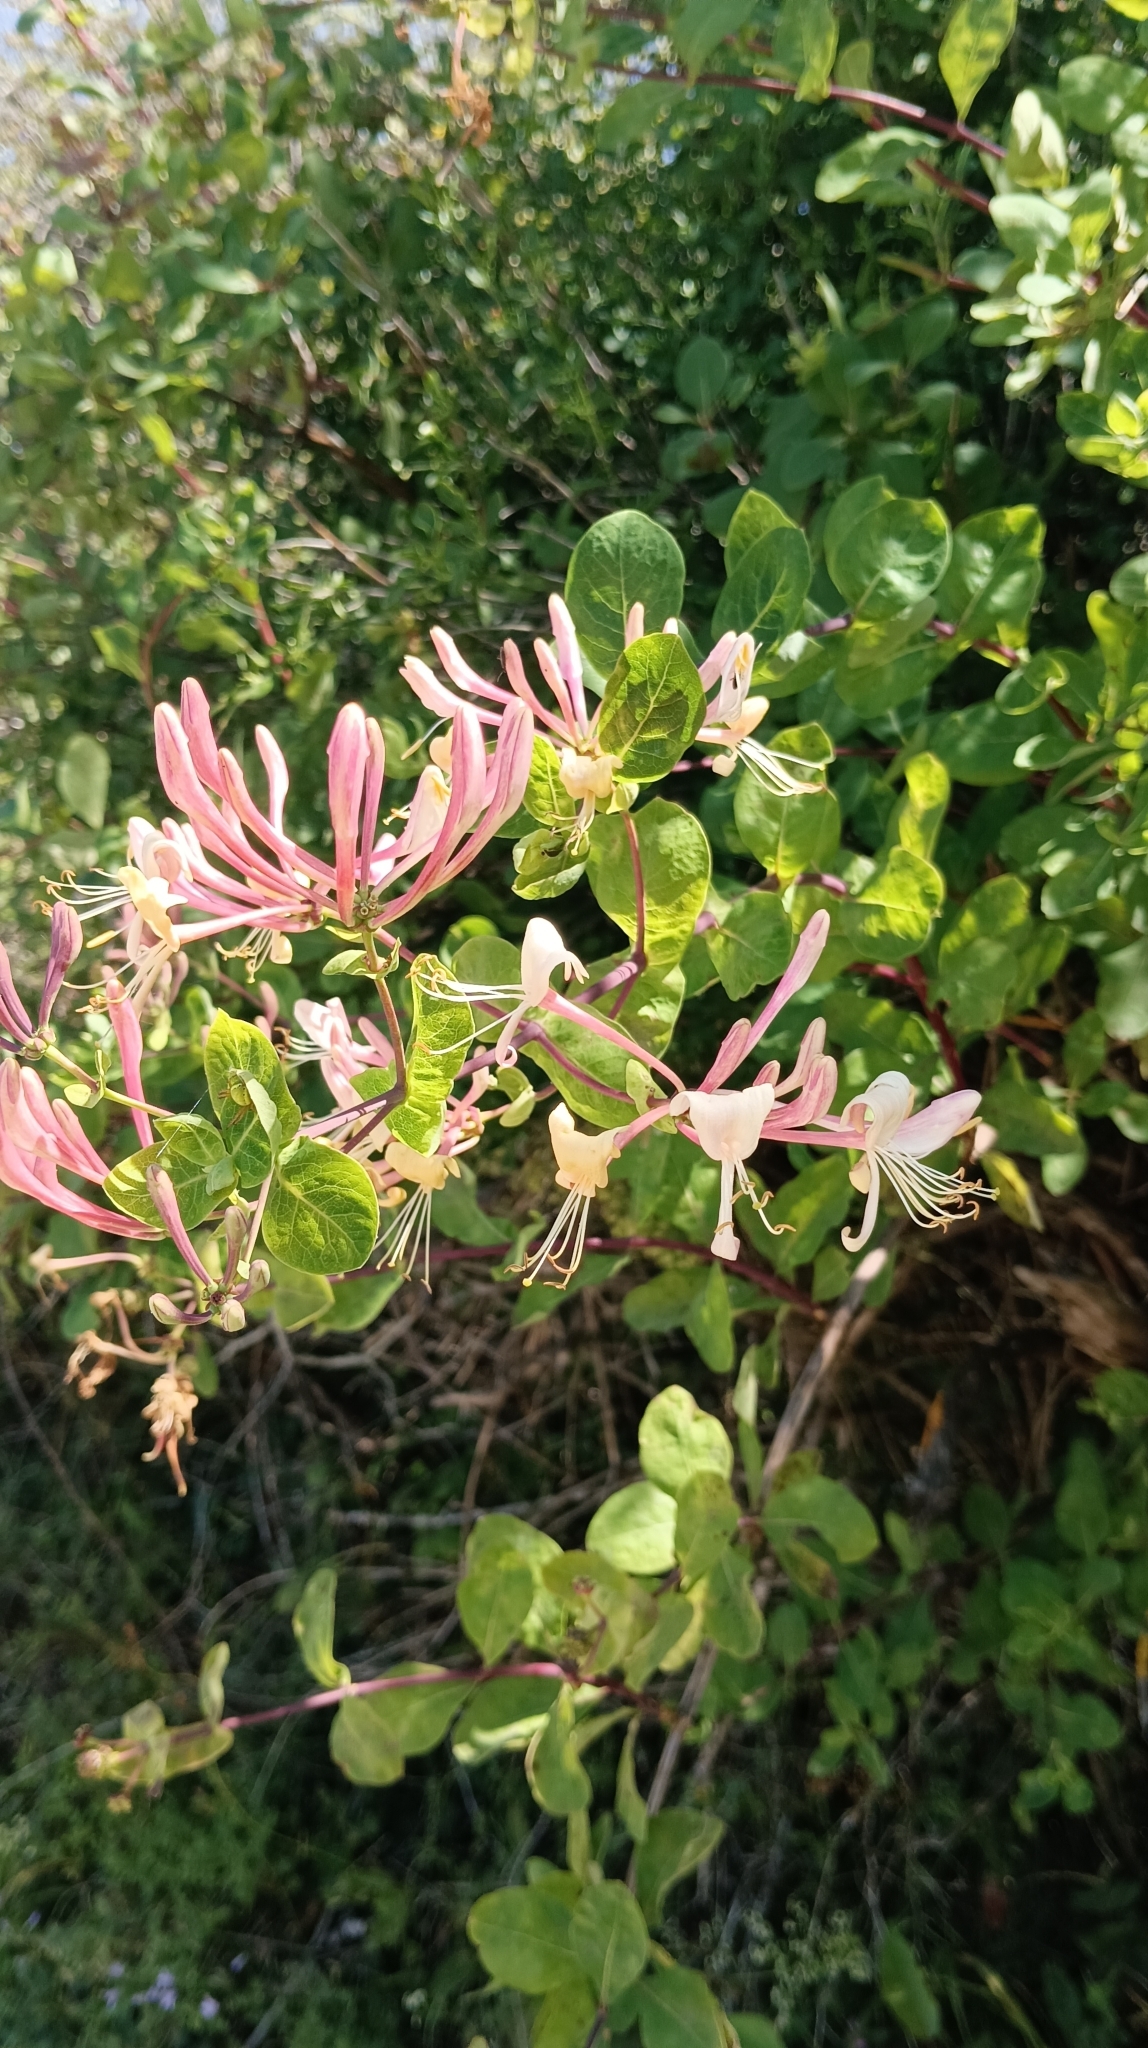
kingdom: Plantae
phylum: Tracheophyta
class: Magnoliopsida
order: Dipsacales
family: Caprifoliaceae
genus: Lonicera
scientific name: Lonicera etrusca
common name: Etruscan honeysuckle
